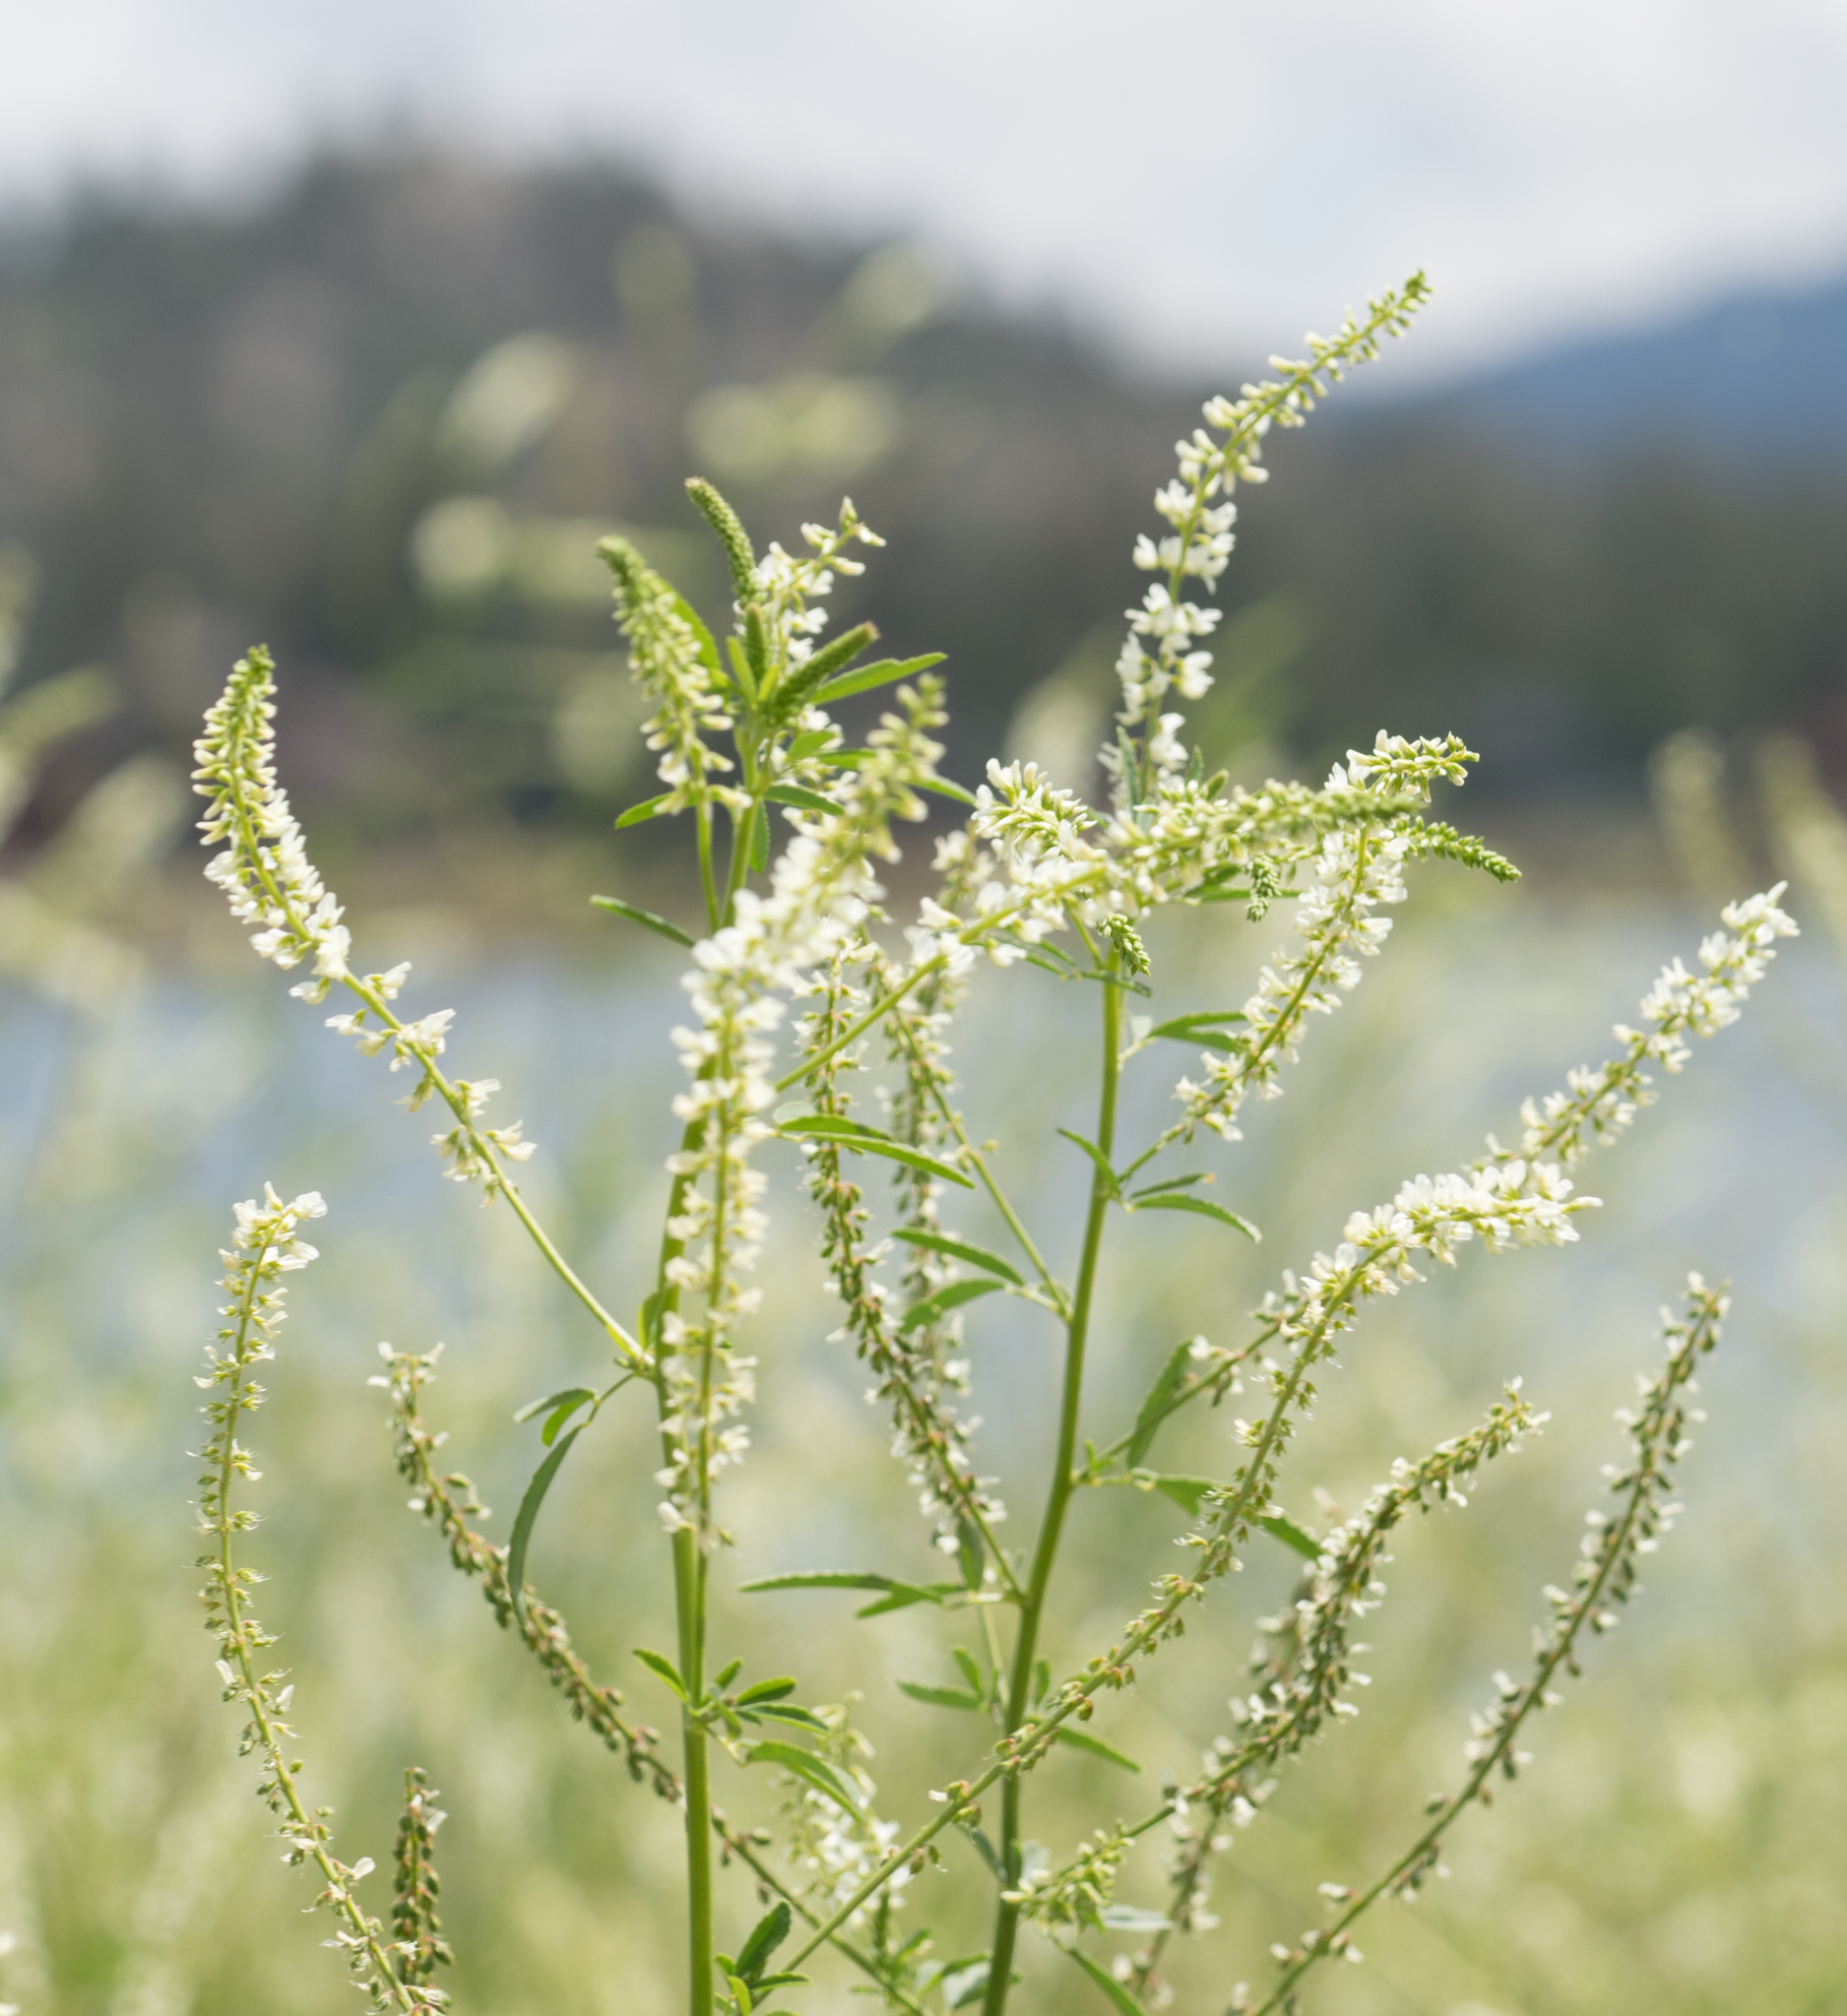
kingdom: Plantae
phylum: Tracheophyta
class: Magnoliopsida
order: Fabales
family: Fabaceae
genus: Melilotus
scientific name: Melilotus albus
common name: White melilot
